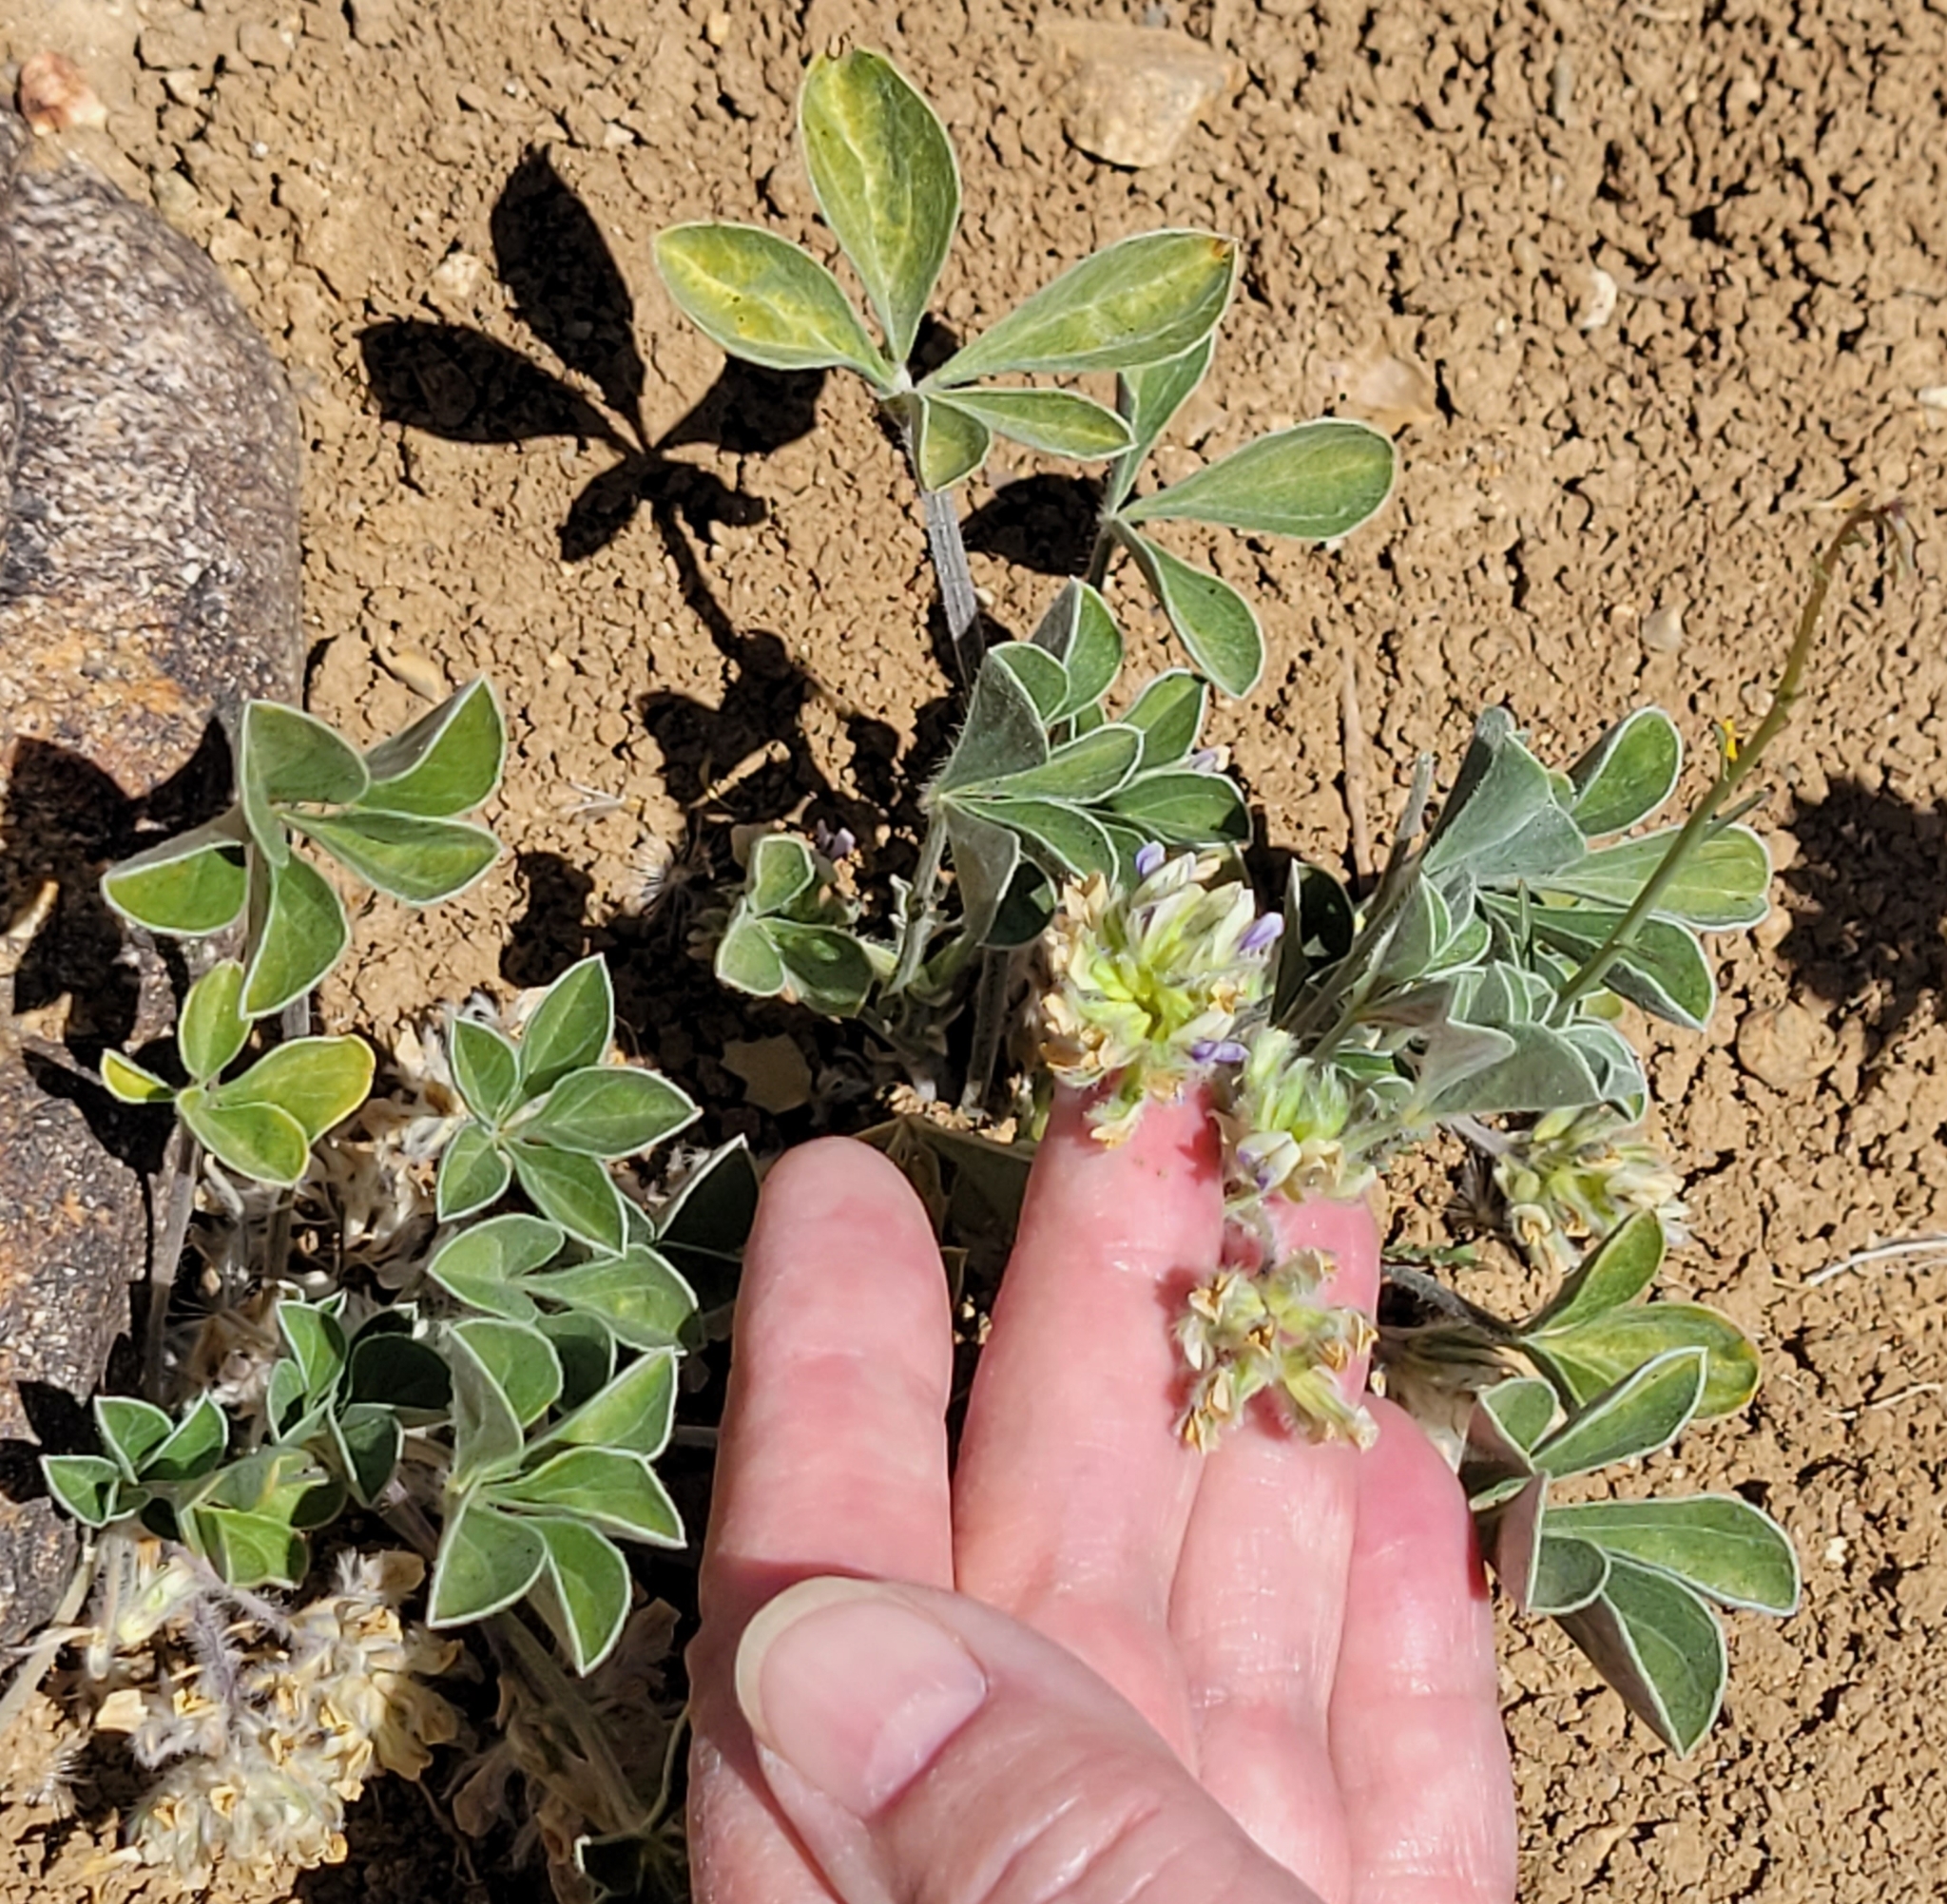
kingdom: Plantae
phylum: Tracheophyta
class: Magnoliopsida
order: Fabales
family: Fabaceae
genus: Pediomelum
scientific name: Pediomelum californicum
